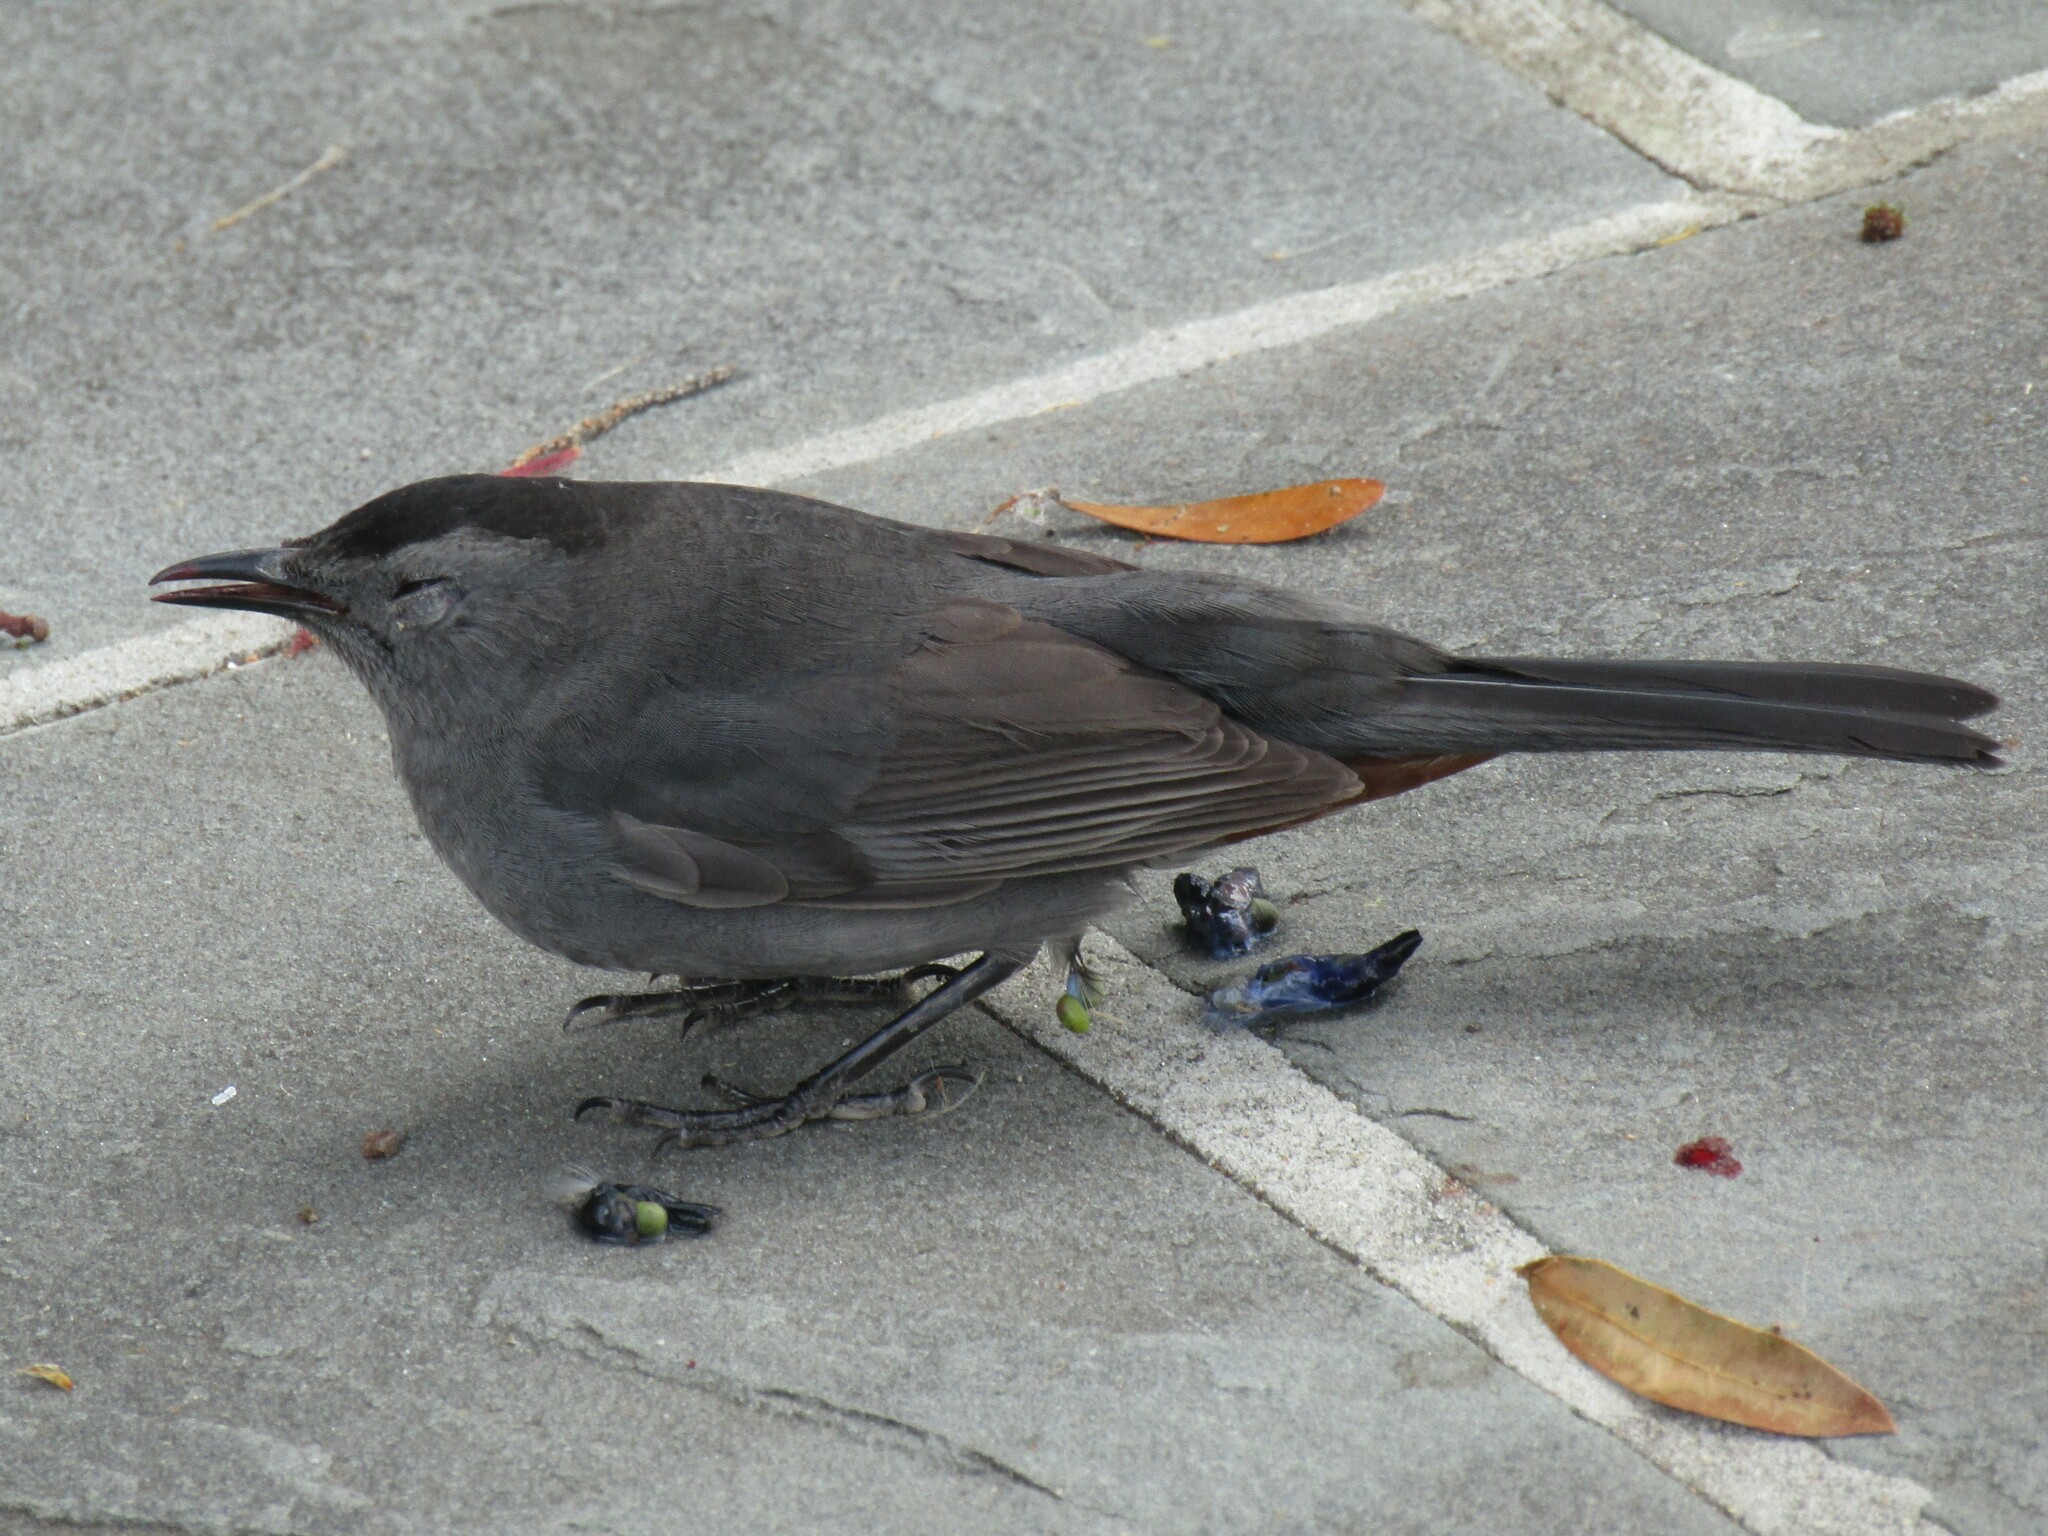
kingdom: Animalia
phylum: Chordata
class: Aves
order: Passeriformes
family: Mimidae
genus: Dumetella
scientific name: Dumetella carolinensis
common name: Gray catbird
